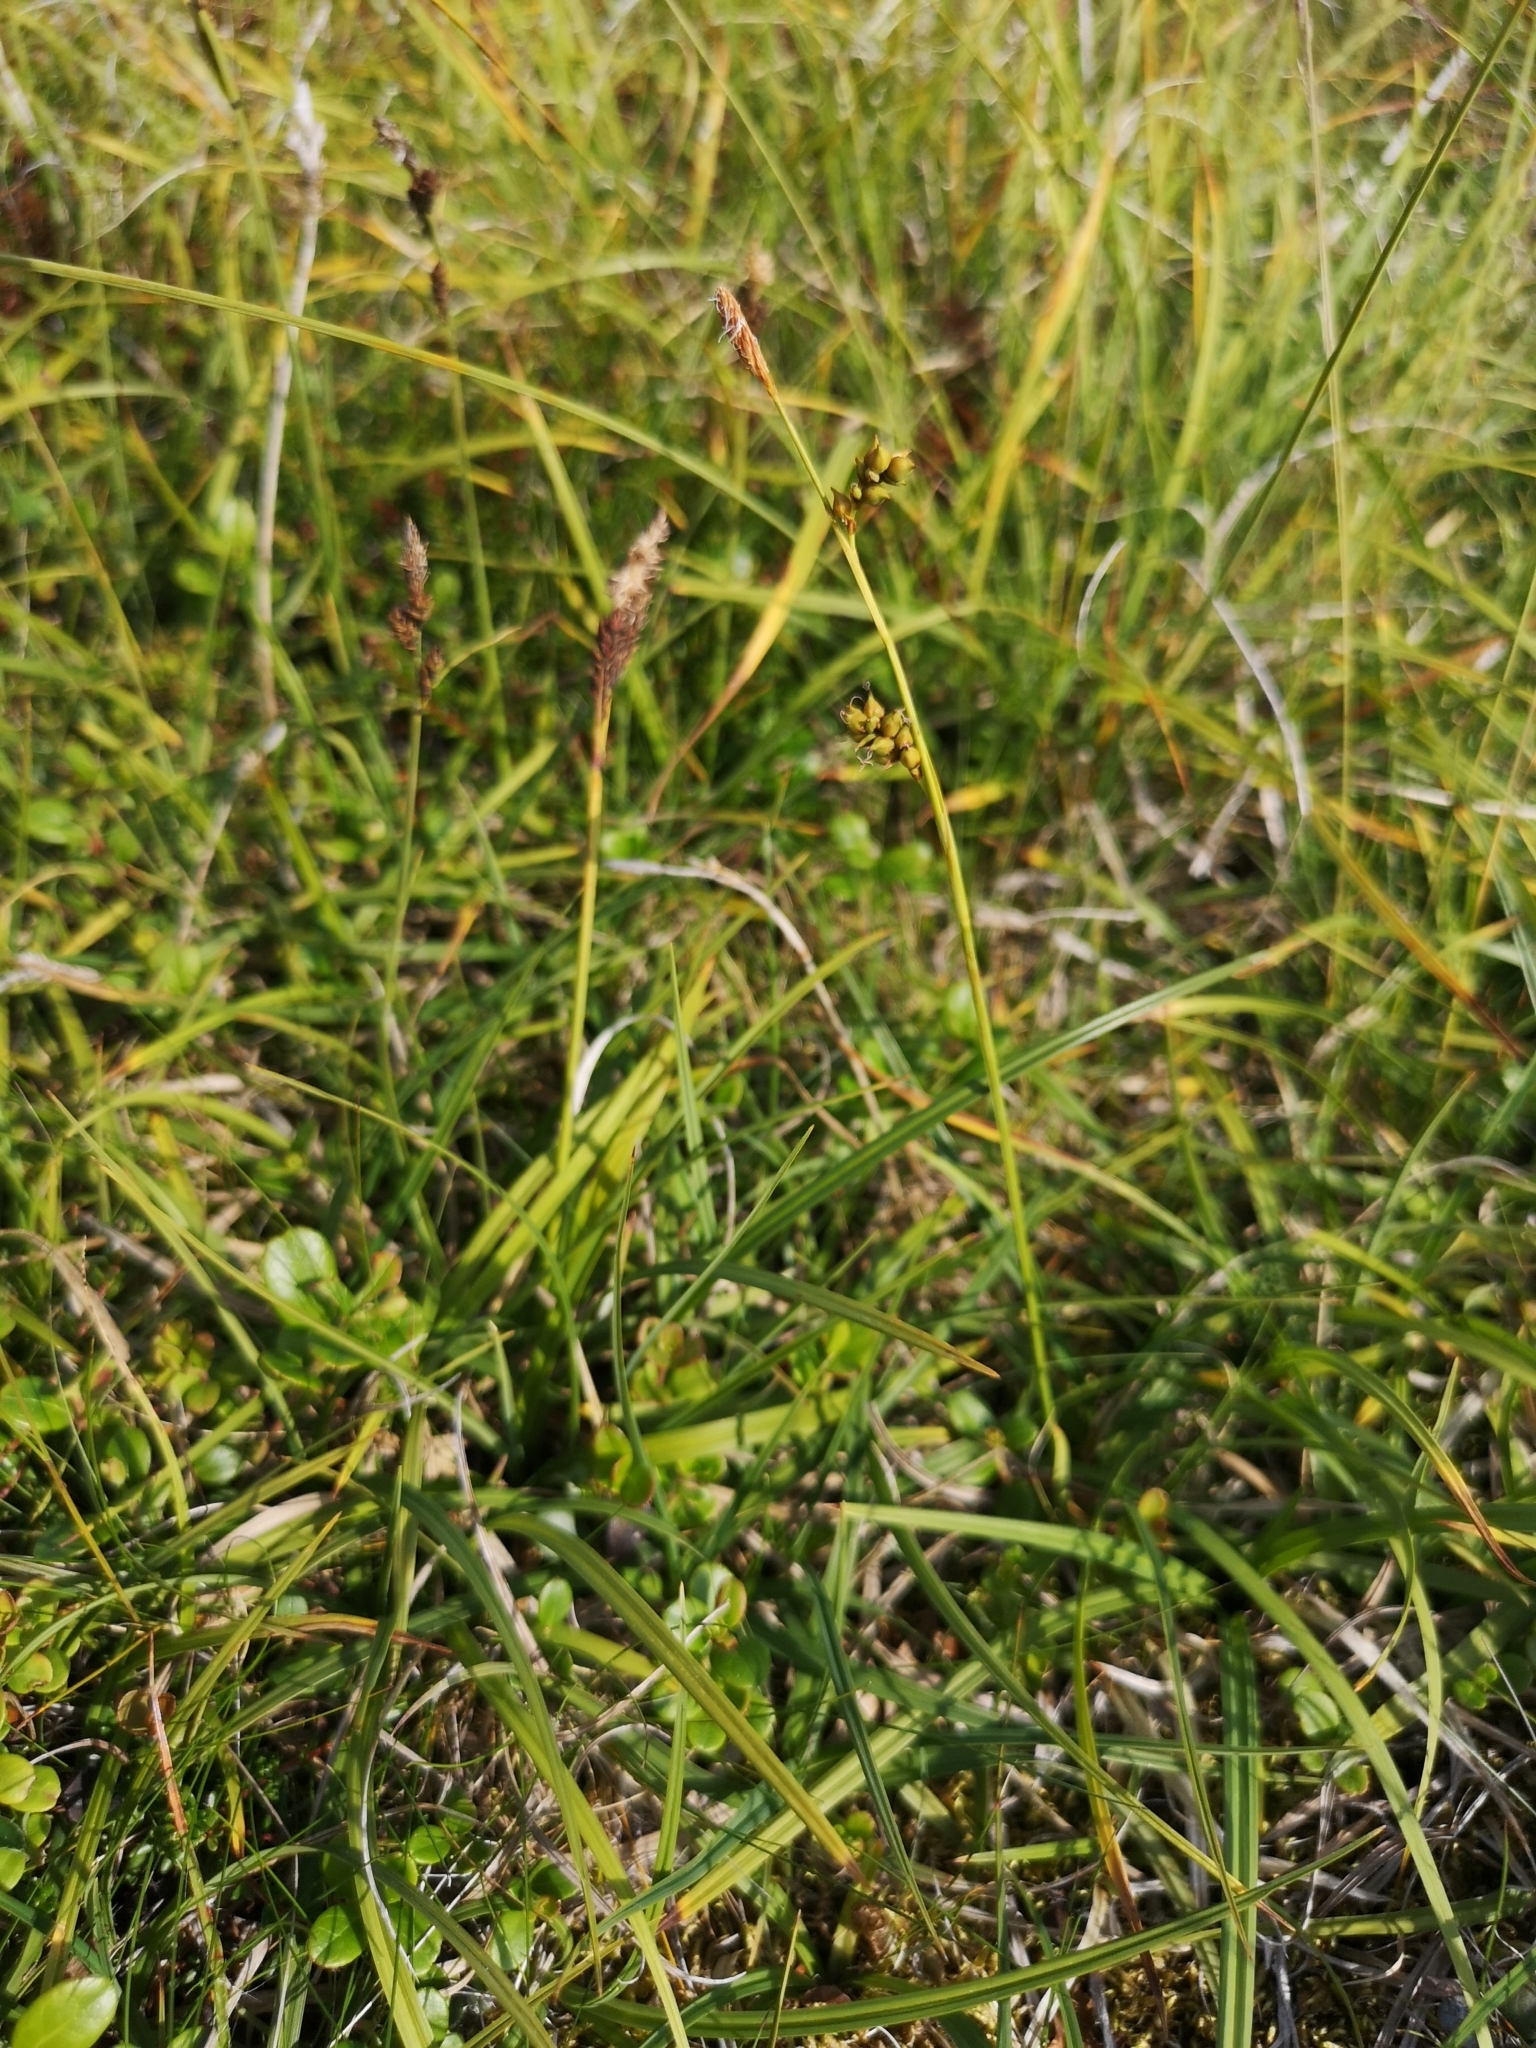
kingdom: Plantae
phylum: Tracheophyta
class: Liliopsida
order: Poales
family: Cyperaceae
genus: Carex
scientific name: Carex vaginata
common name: Sheathed sedge
